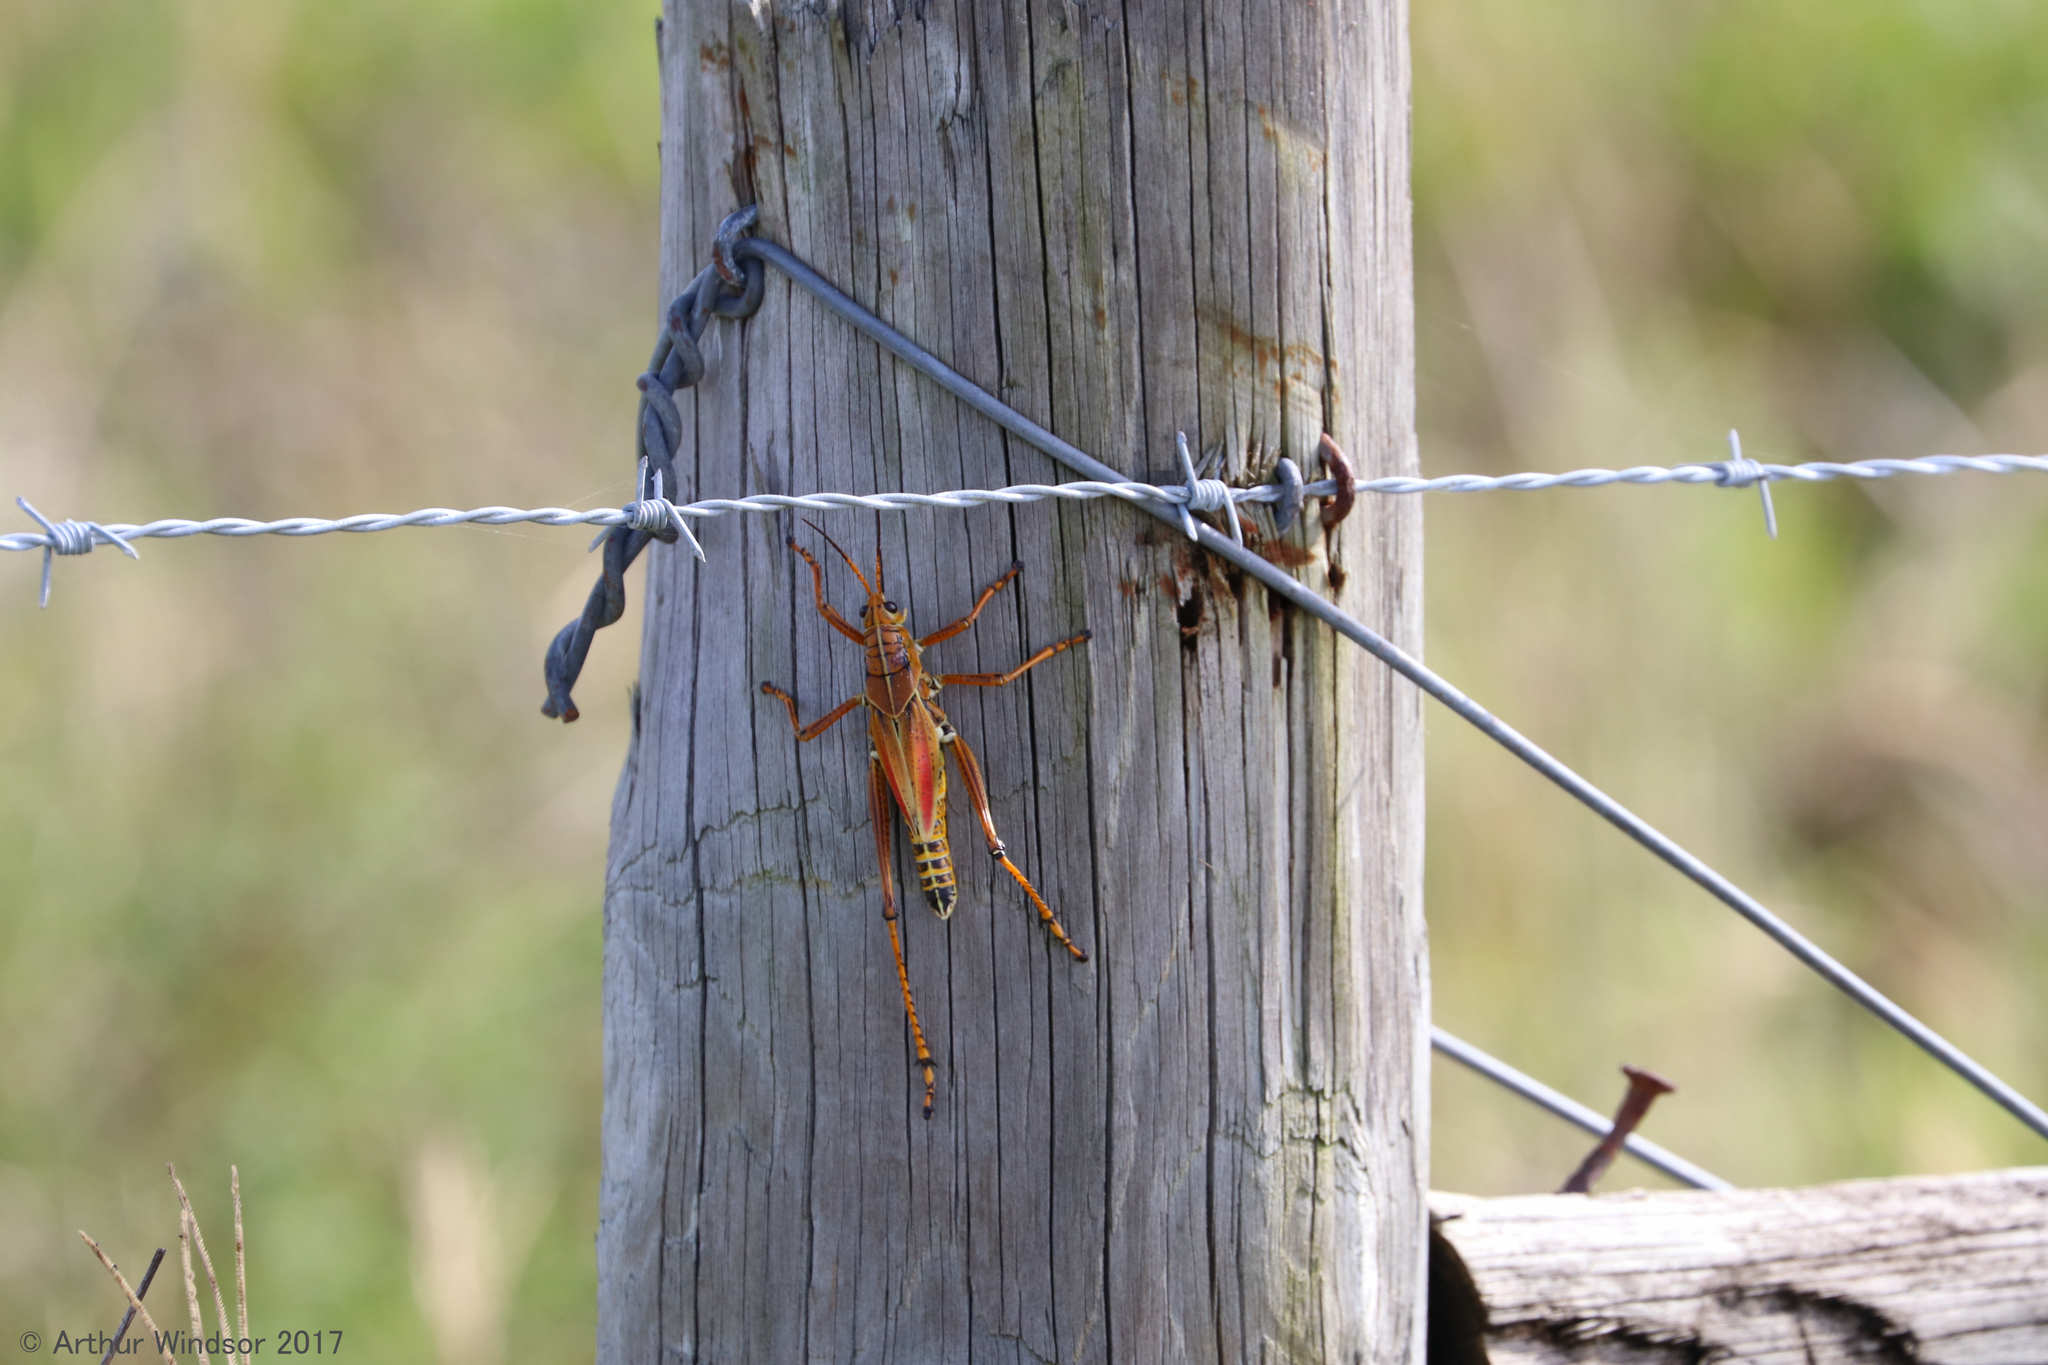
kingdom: Animalia
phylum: Arthropoda
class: Insecta
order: Orthoptera
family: Romaleidae
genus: Romalea
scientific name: Romalea microptera
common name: Eastern lubber grasshopper
